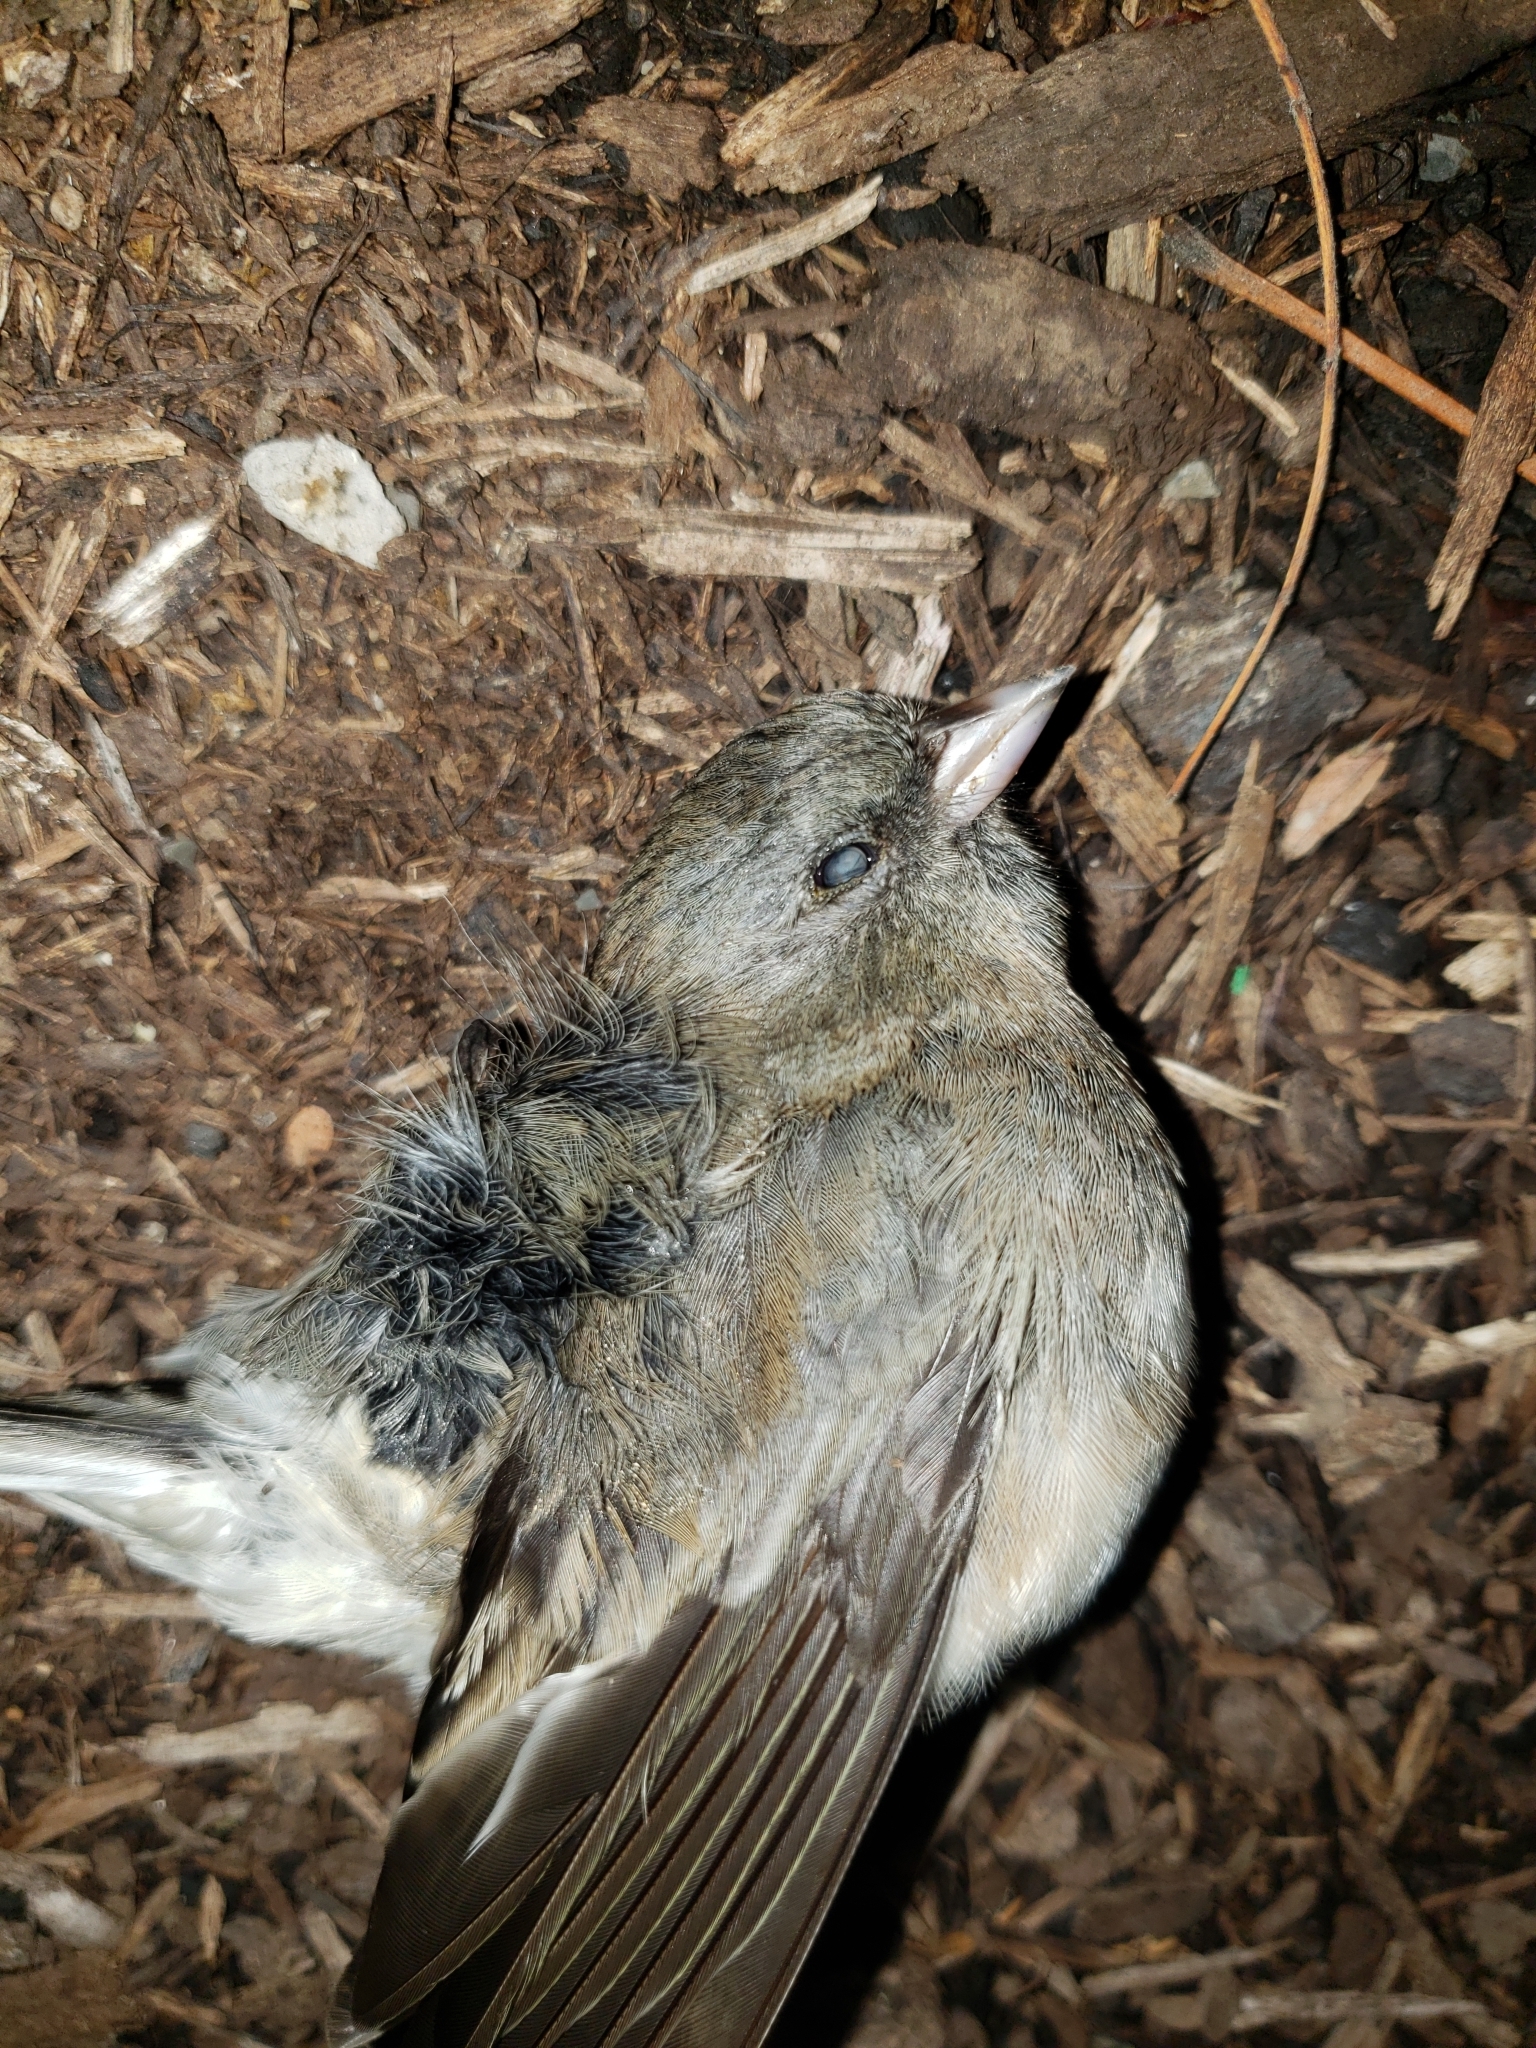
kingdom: Animalia
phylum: Chordata
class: Aves
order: Passeriformes
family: Passerellidae
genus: Junco
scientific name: Junco hyemalis
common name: Dark-eyed junco
